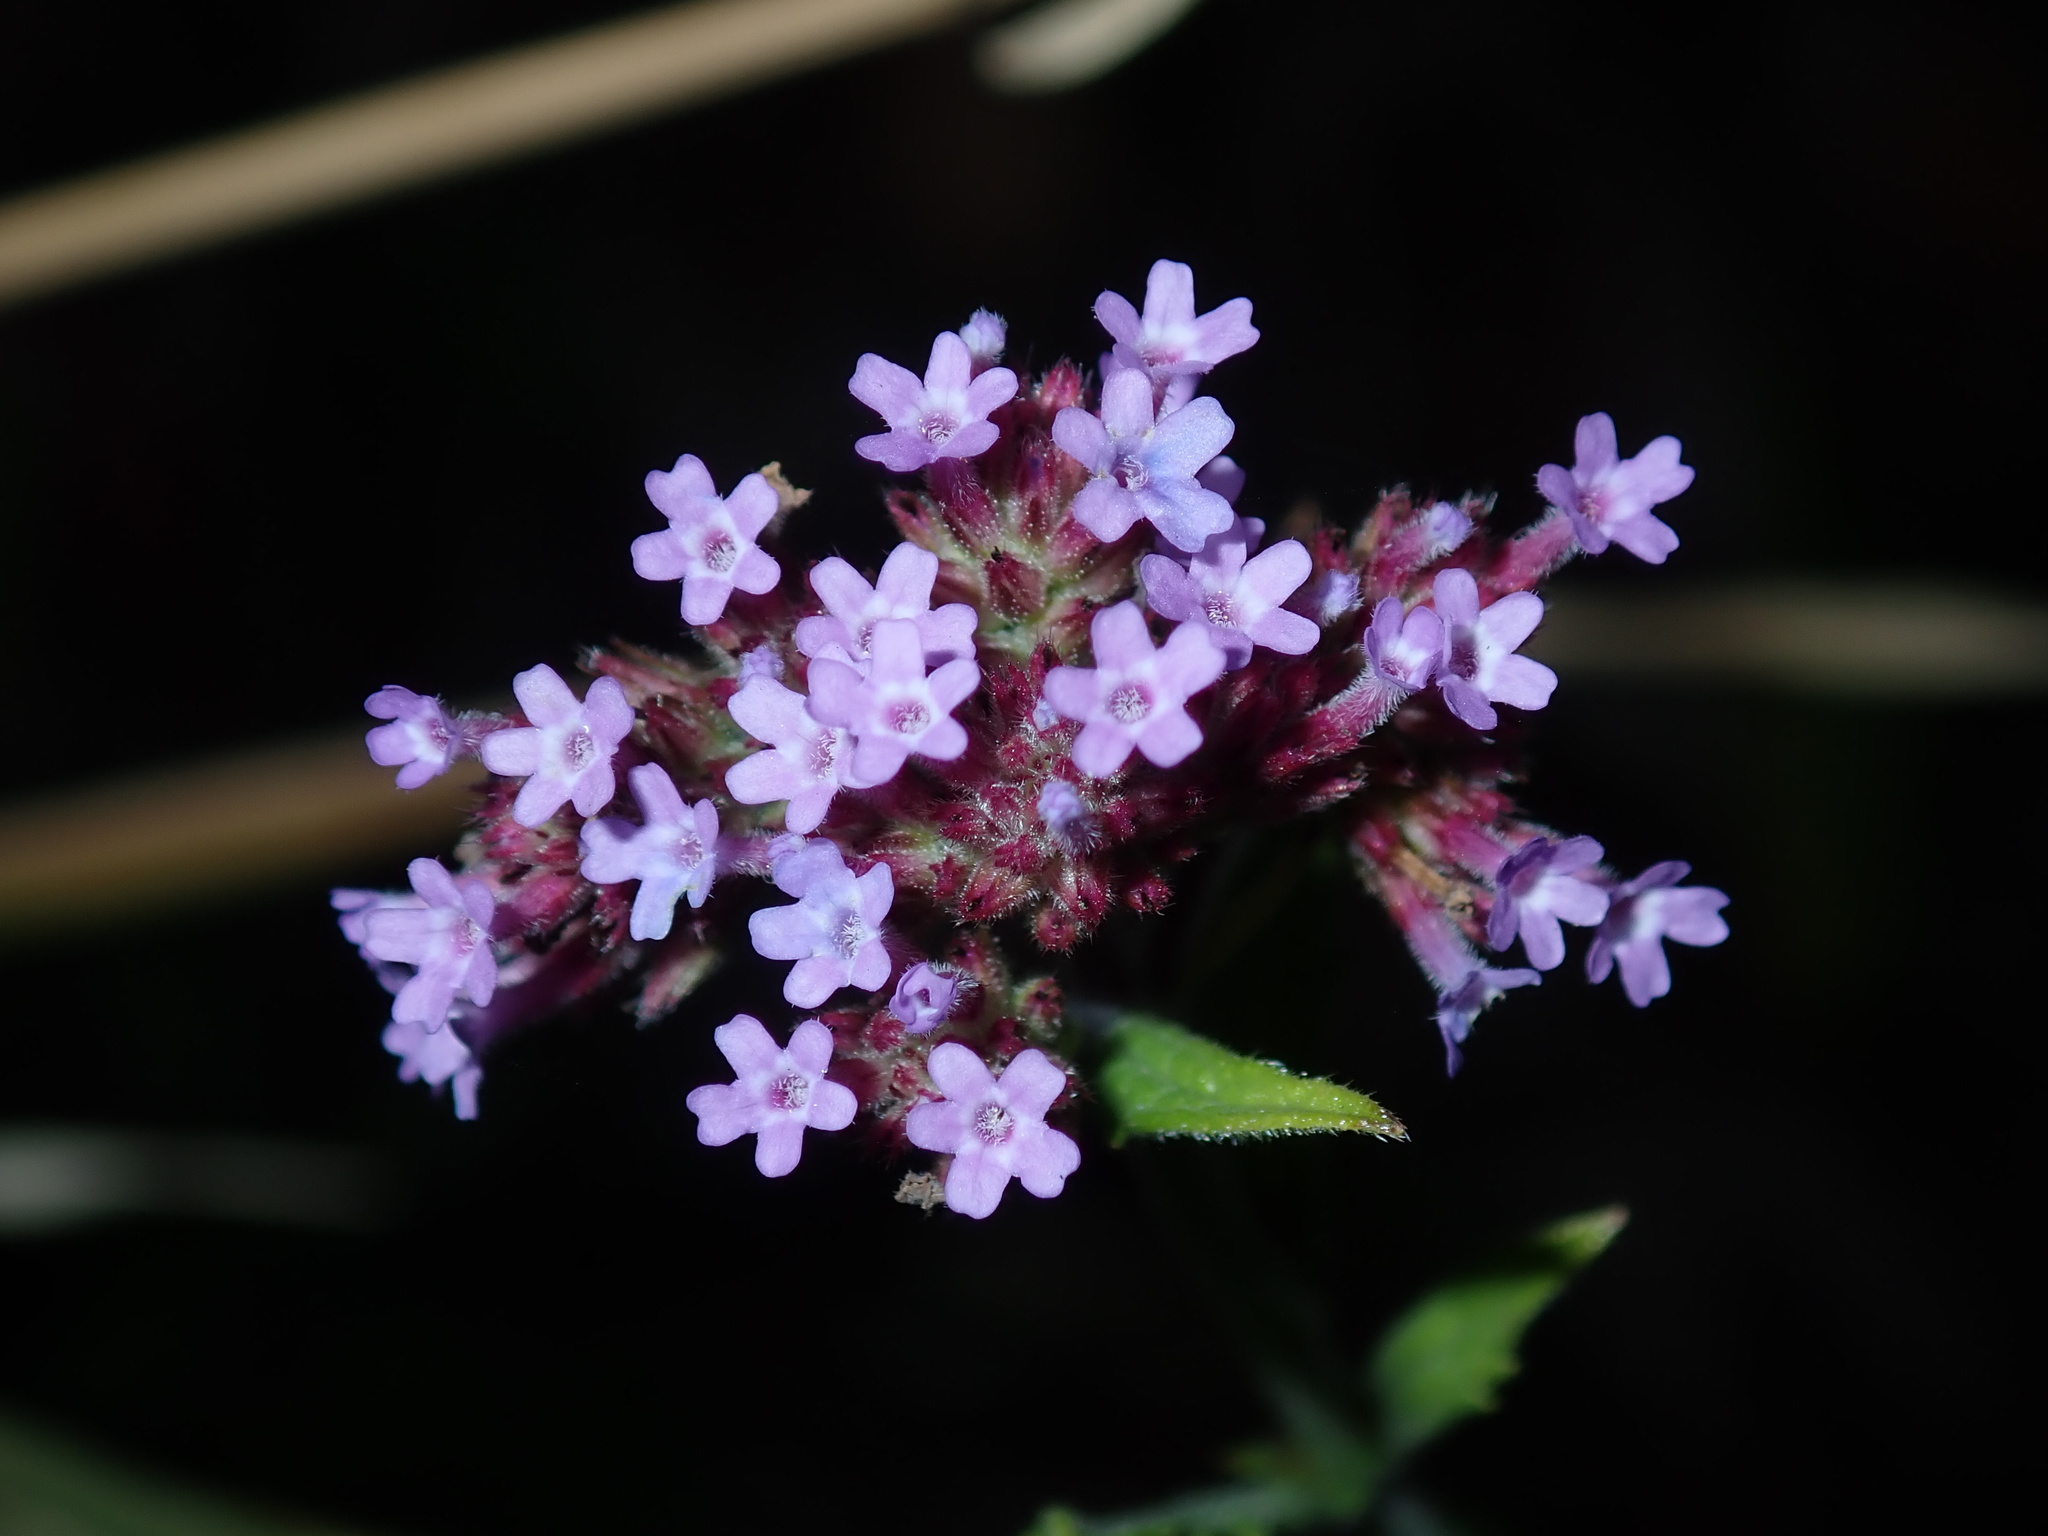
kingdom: Plantae
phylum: Tracheophyta
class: Magnoliopsida
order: Lamiales
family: Verbenaceae
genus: Verbena
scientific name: Verbena bonariensis
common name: Purpletop vervain
